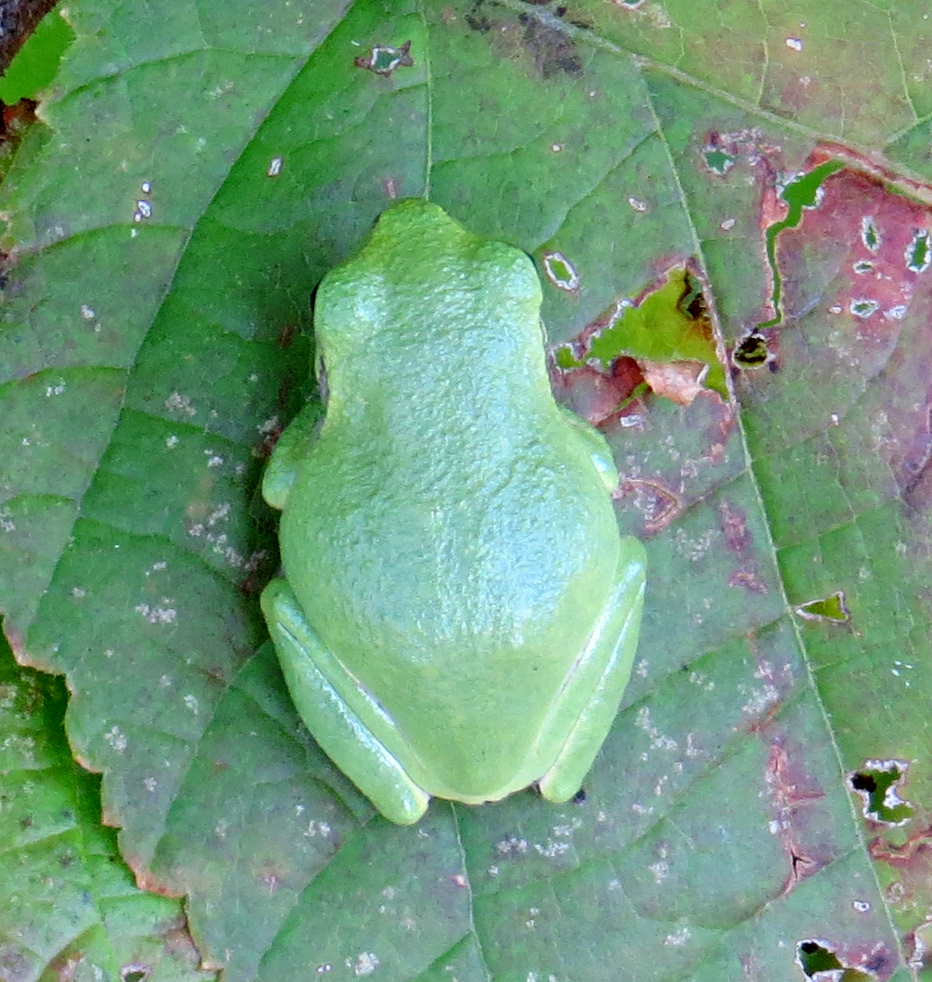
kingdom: Animalia
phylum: Chordata
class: Amphibia
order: Anura
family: Hylidae
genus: Hyla
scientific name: Hyla
